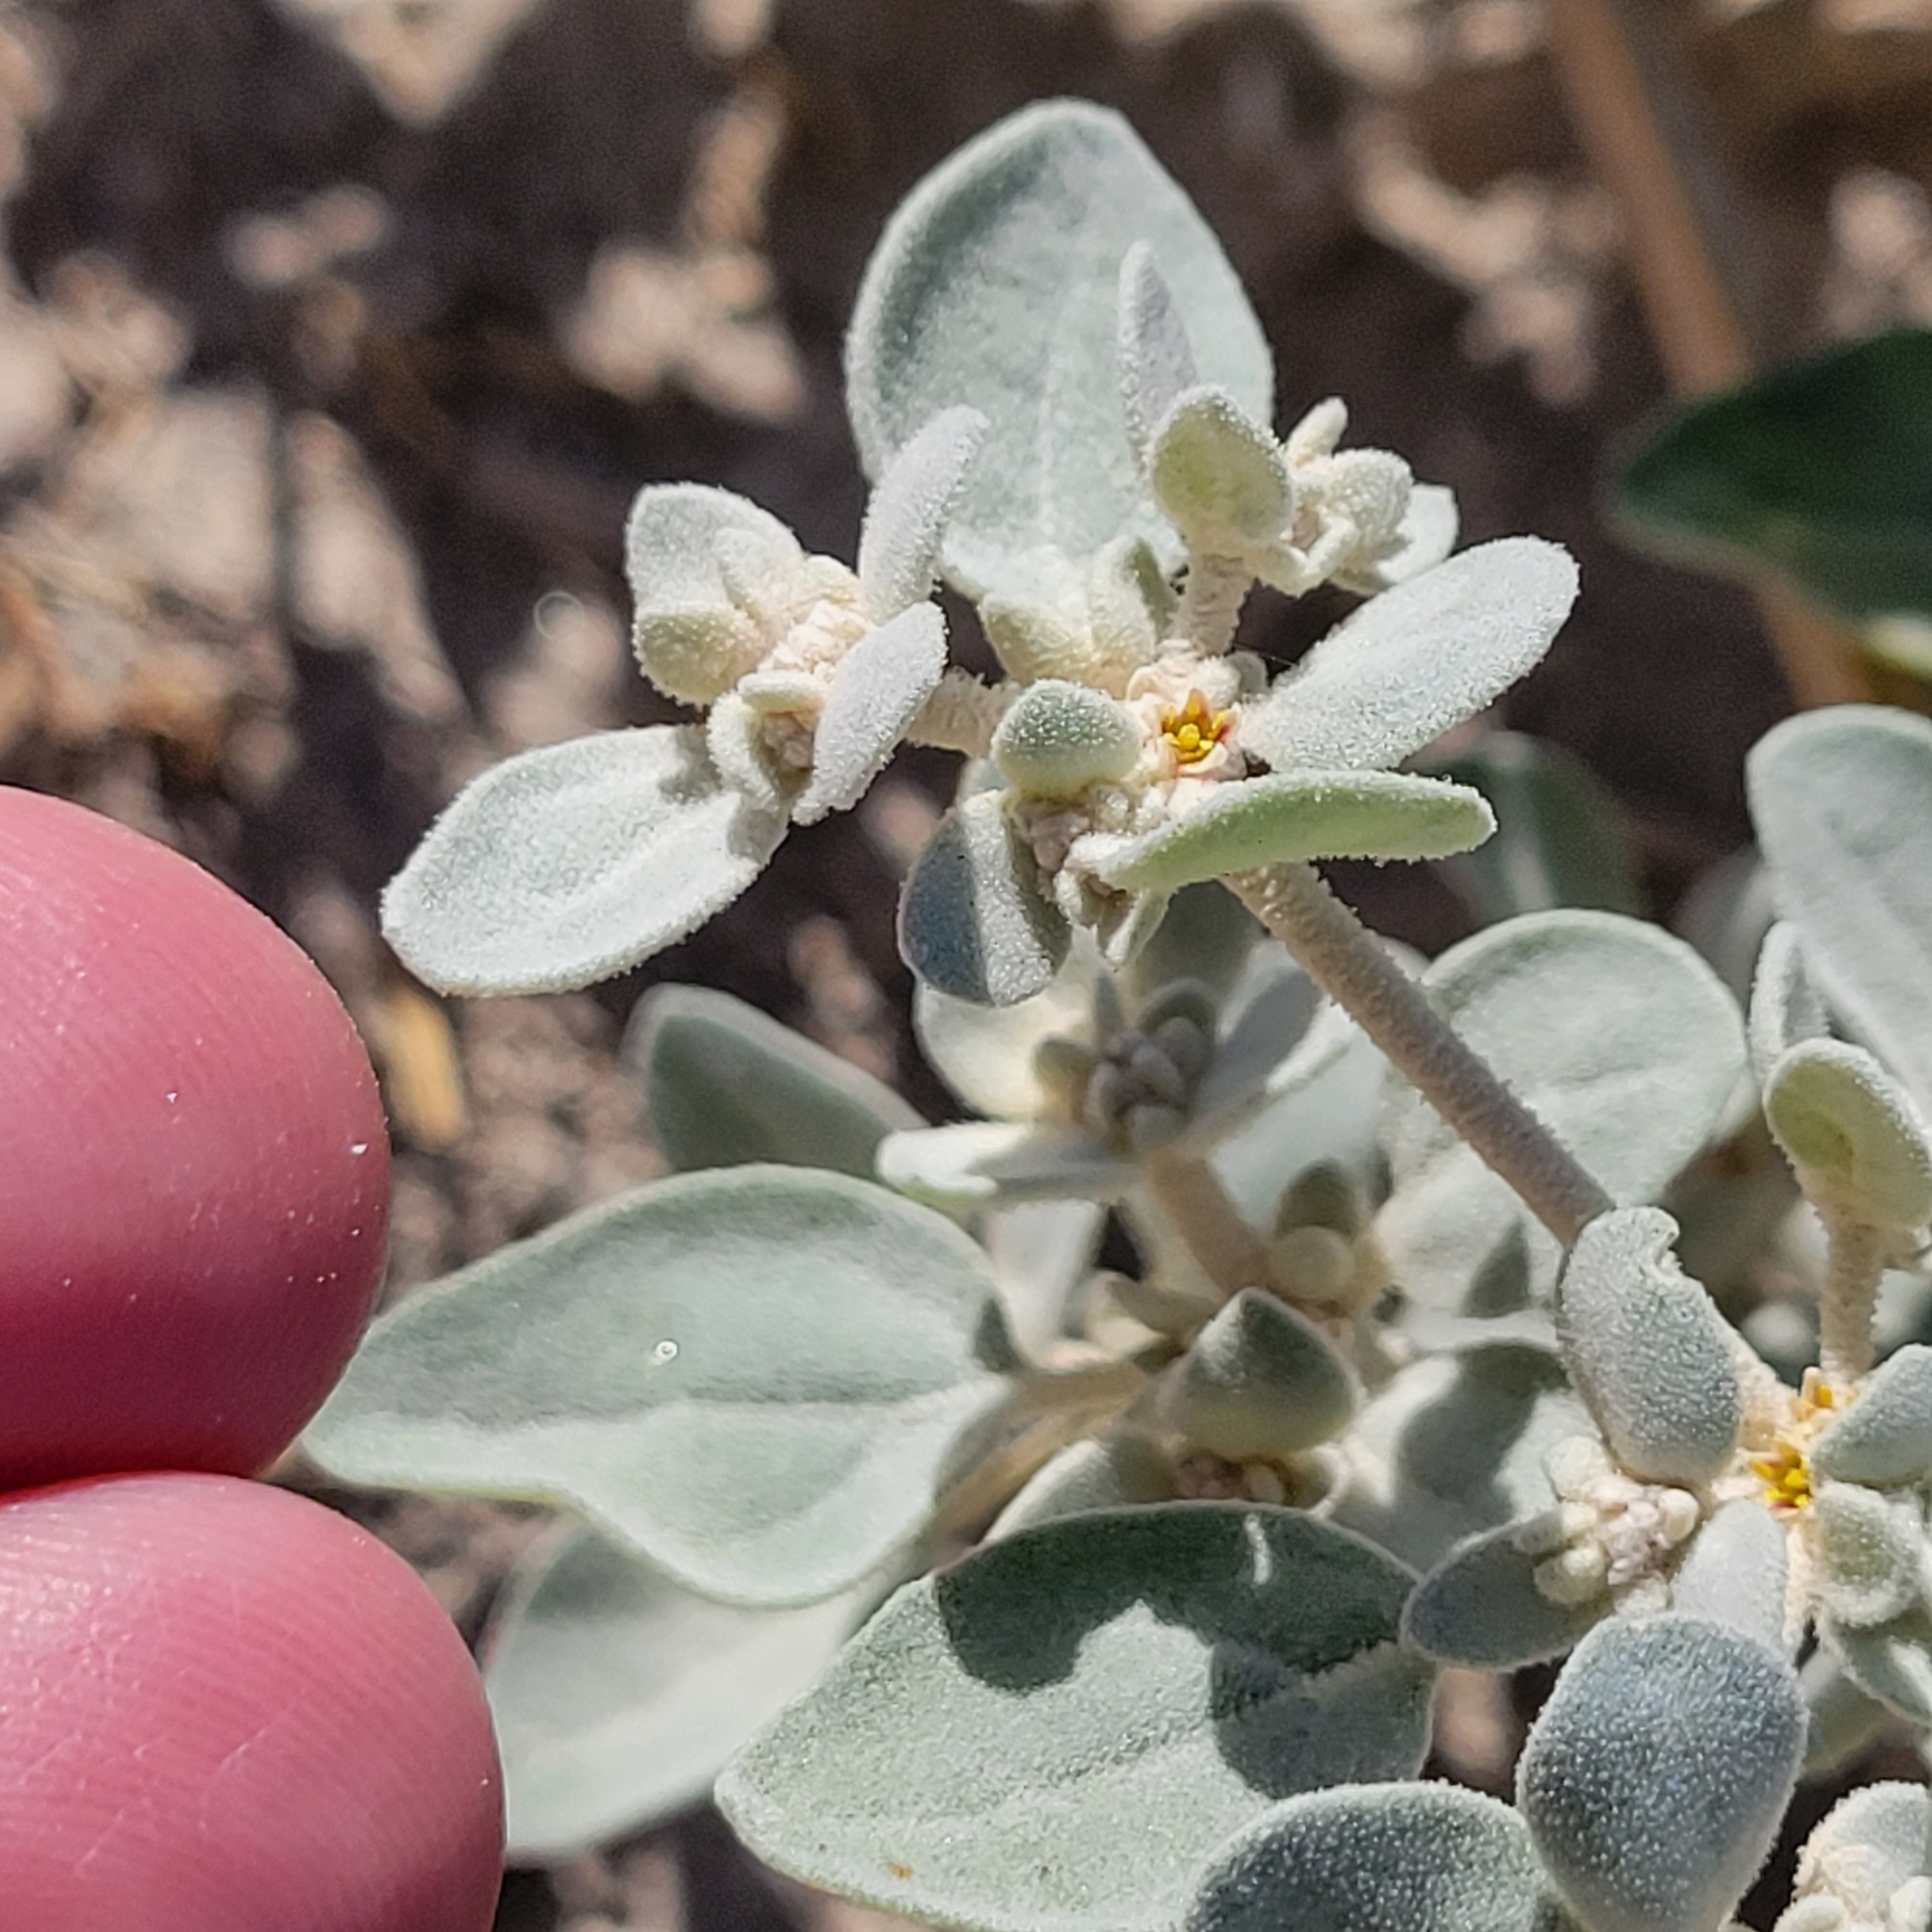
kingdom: Plantae
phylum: Tracheophyta
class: Magnoliopsida
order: Caryophyllales
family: Amaranthaceae
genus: Tidestromia
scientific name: Tidestromia suffruticosa
